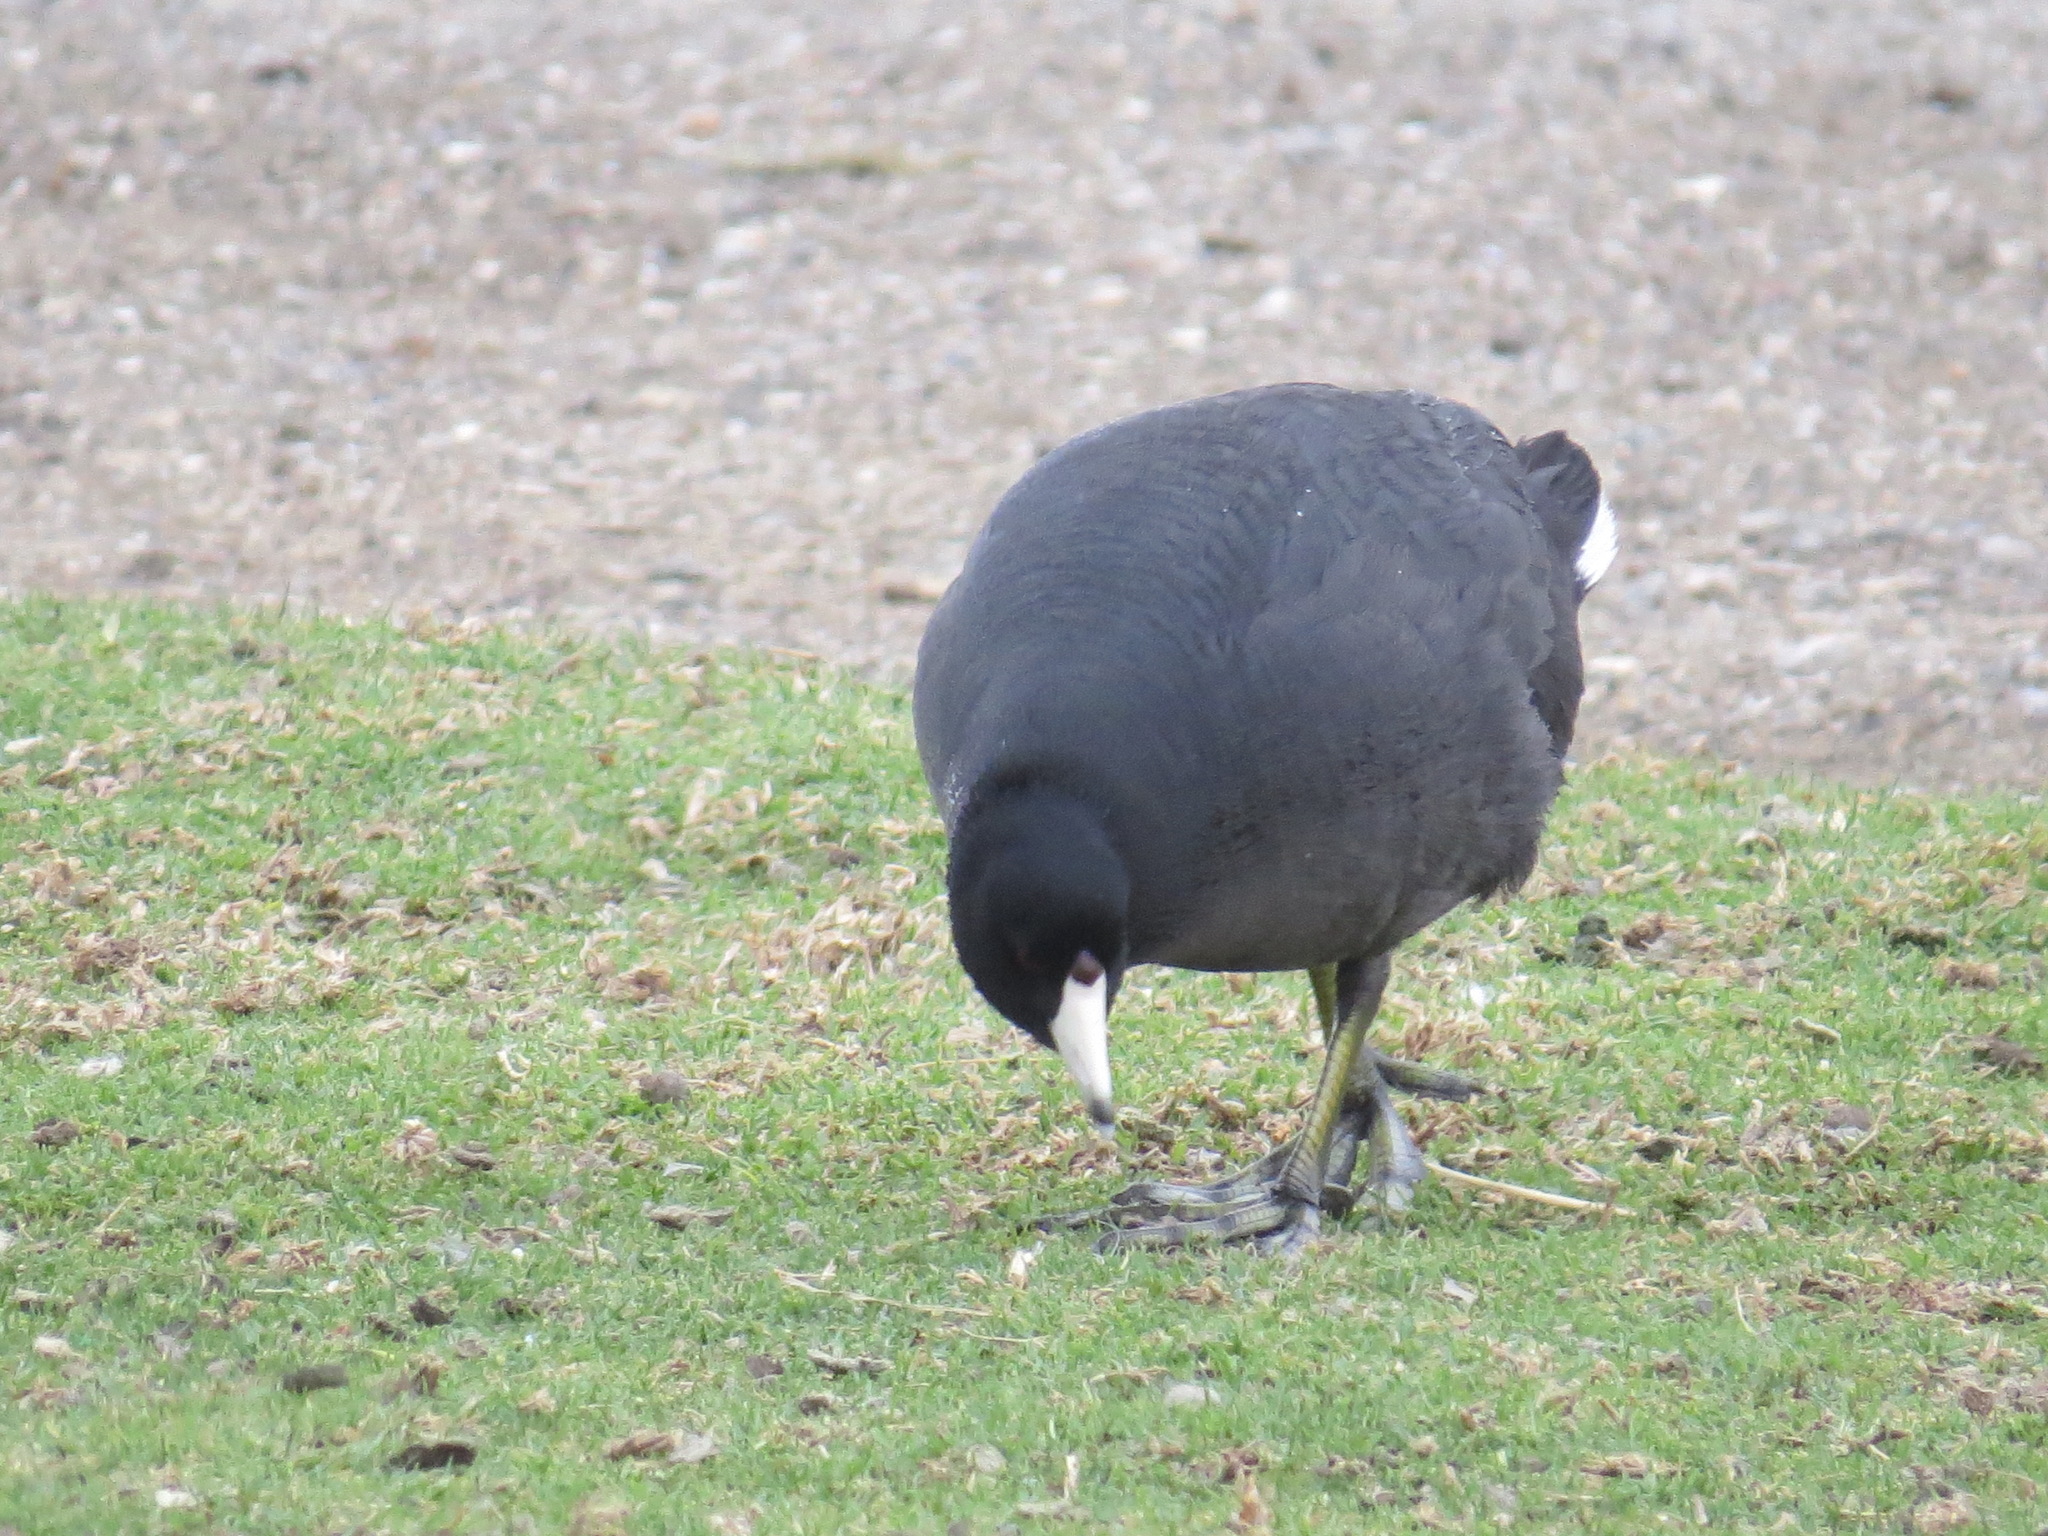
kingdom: Animalia
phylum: Chordata
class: Aves
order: Gruiformes
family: Rallidae
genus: Fulica
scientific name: Fulica americana
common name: American coot
